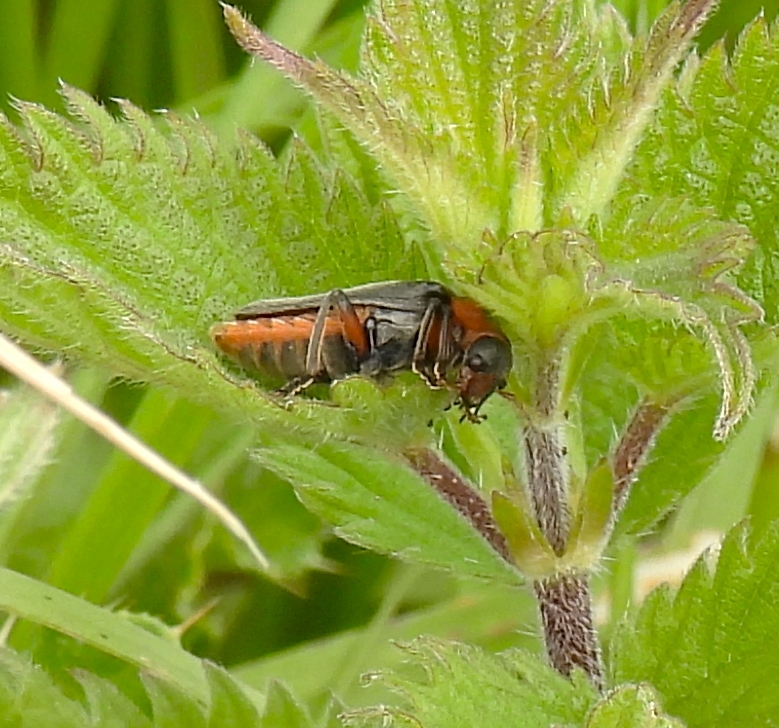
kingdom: Animalia
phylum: Arthropoda
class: Insecta
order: Coleoptera
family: Cantharidae
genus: Cantharis
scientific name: Cantharis rustica
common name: Soldier beetle
